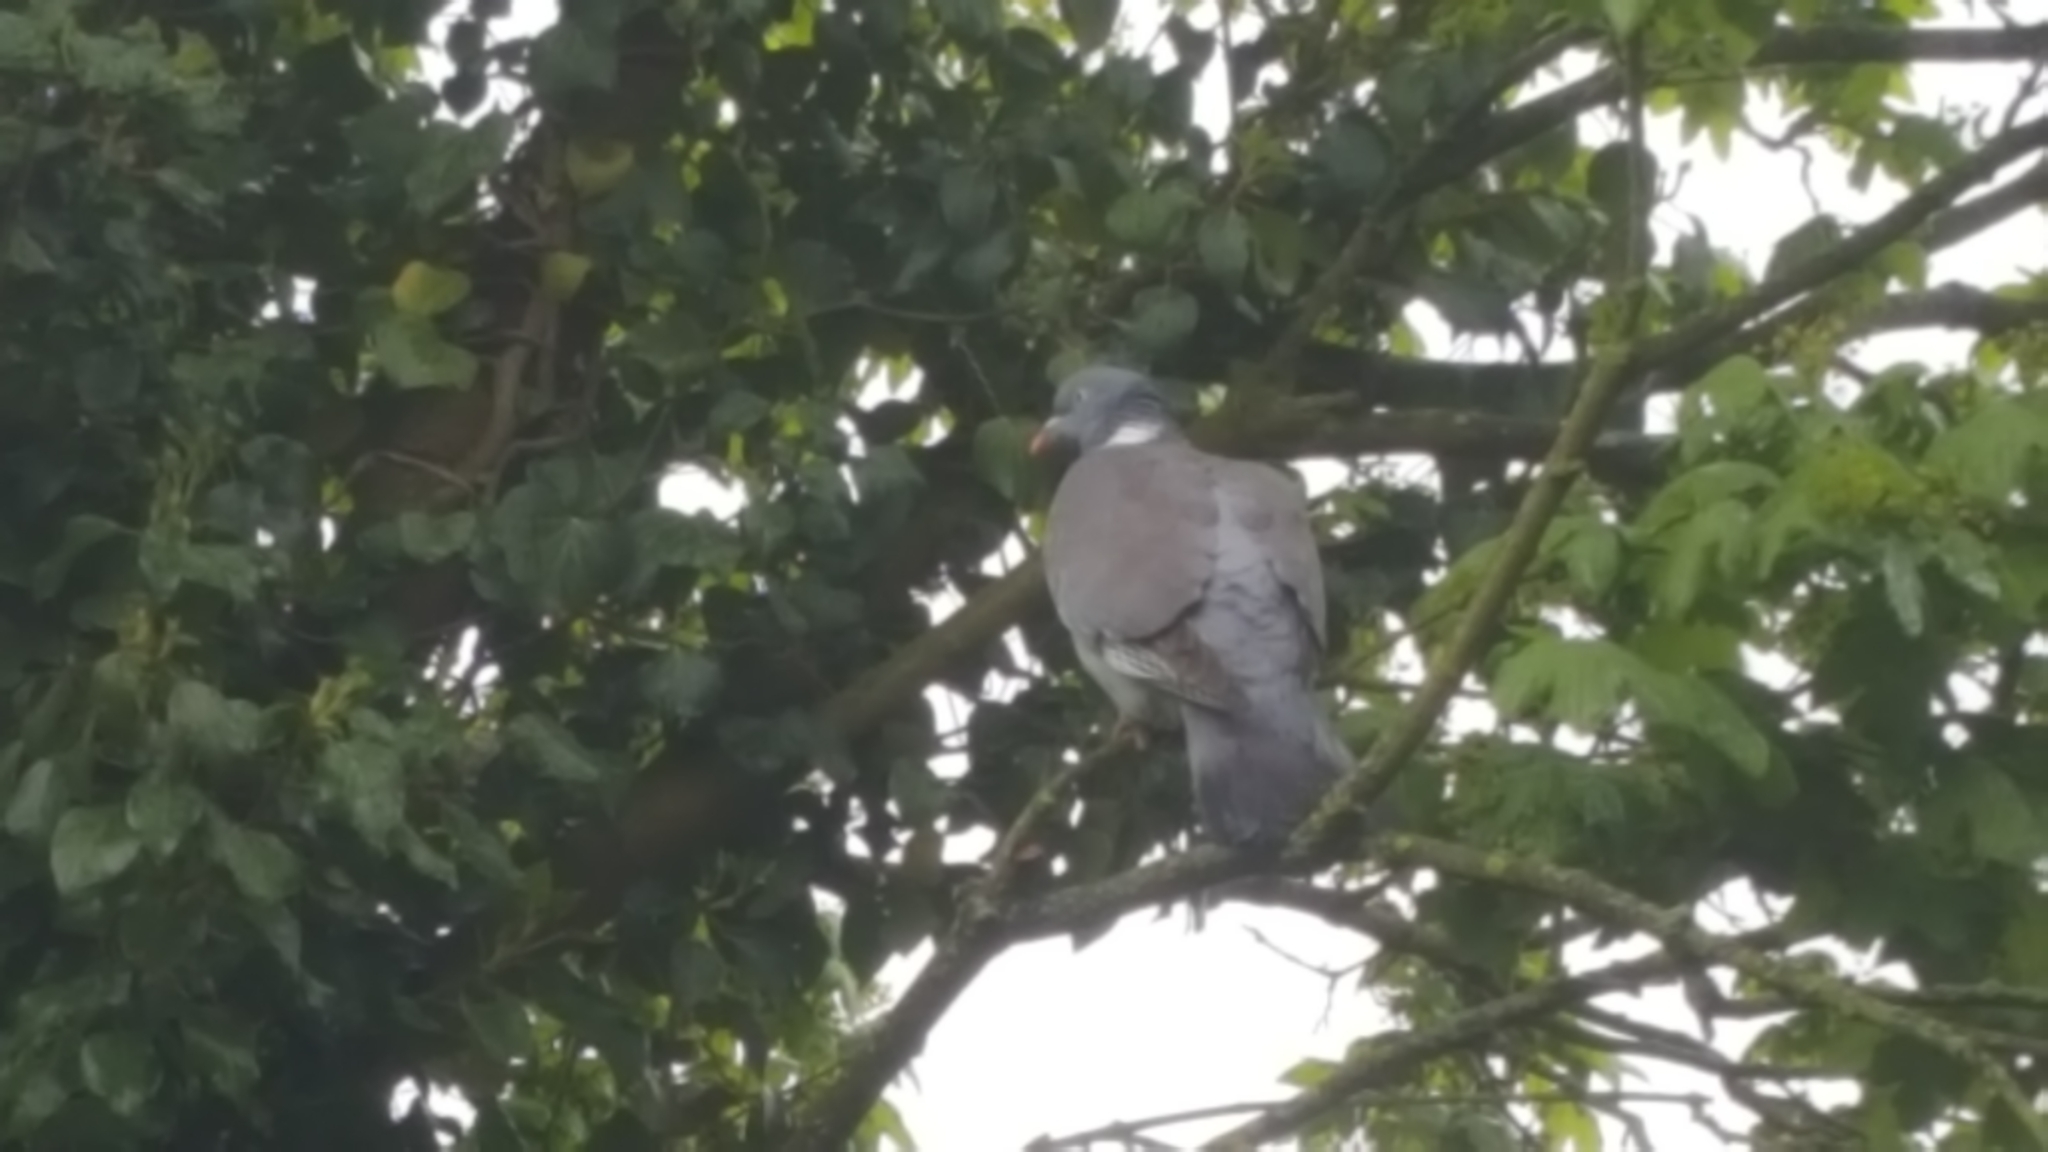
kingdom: Animalia
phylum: Chordata
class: Aves
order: Columbiformes
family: Columbidae
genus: Columba
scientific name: Columba palumbus
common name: Common wood pigeon
